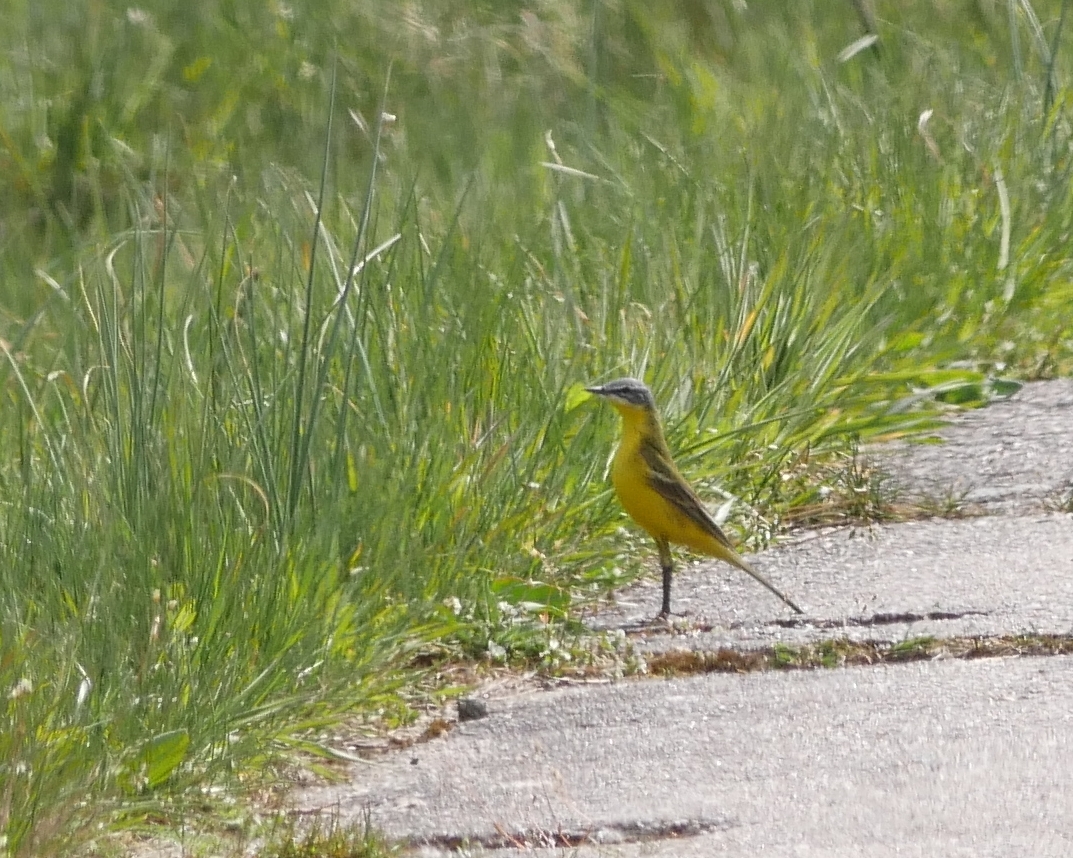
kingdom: Animalia
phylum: Chordata
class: Aves
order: Passeriformes
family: Motacillidae
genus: Motacilla
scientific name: Motacilla flava
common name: Western yellow wagtail
